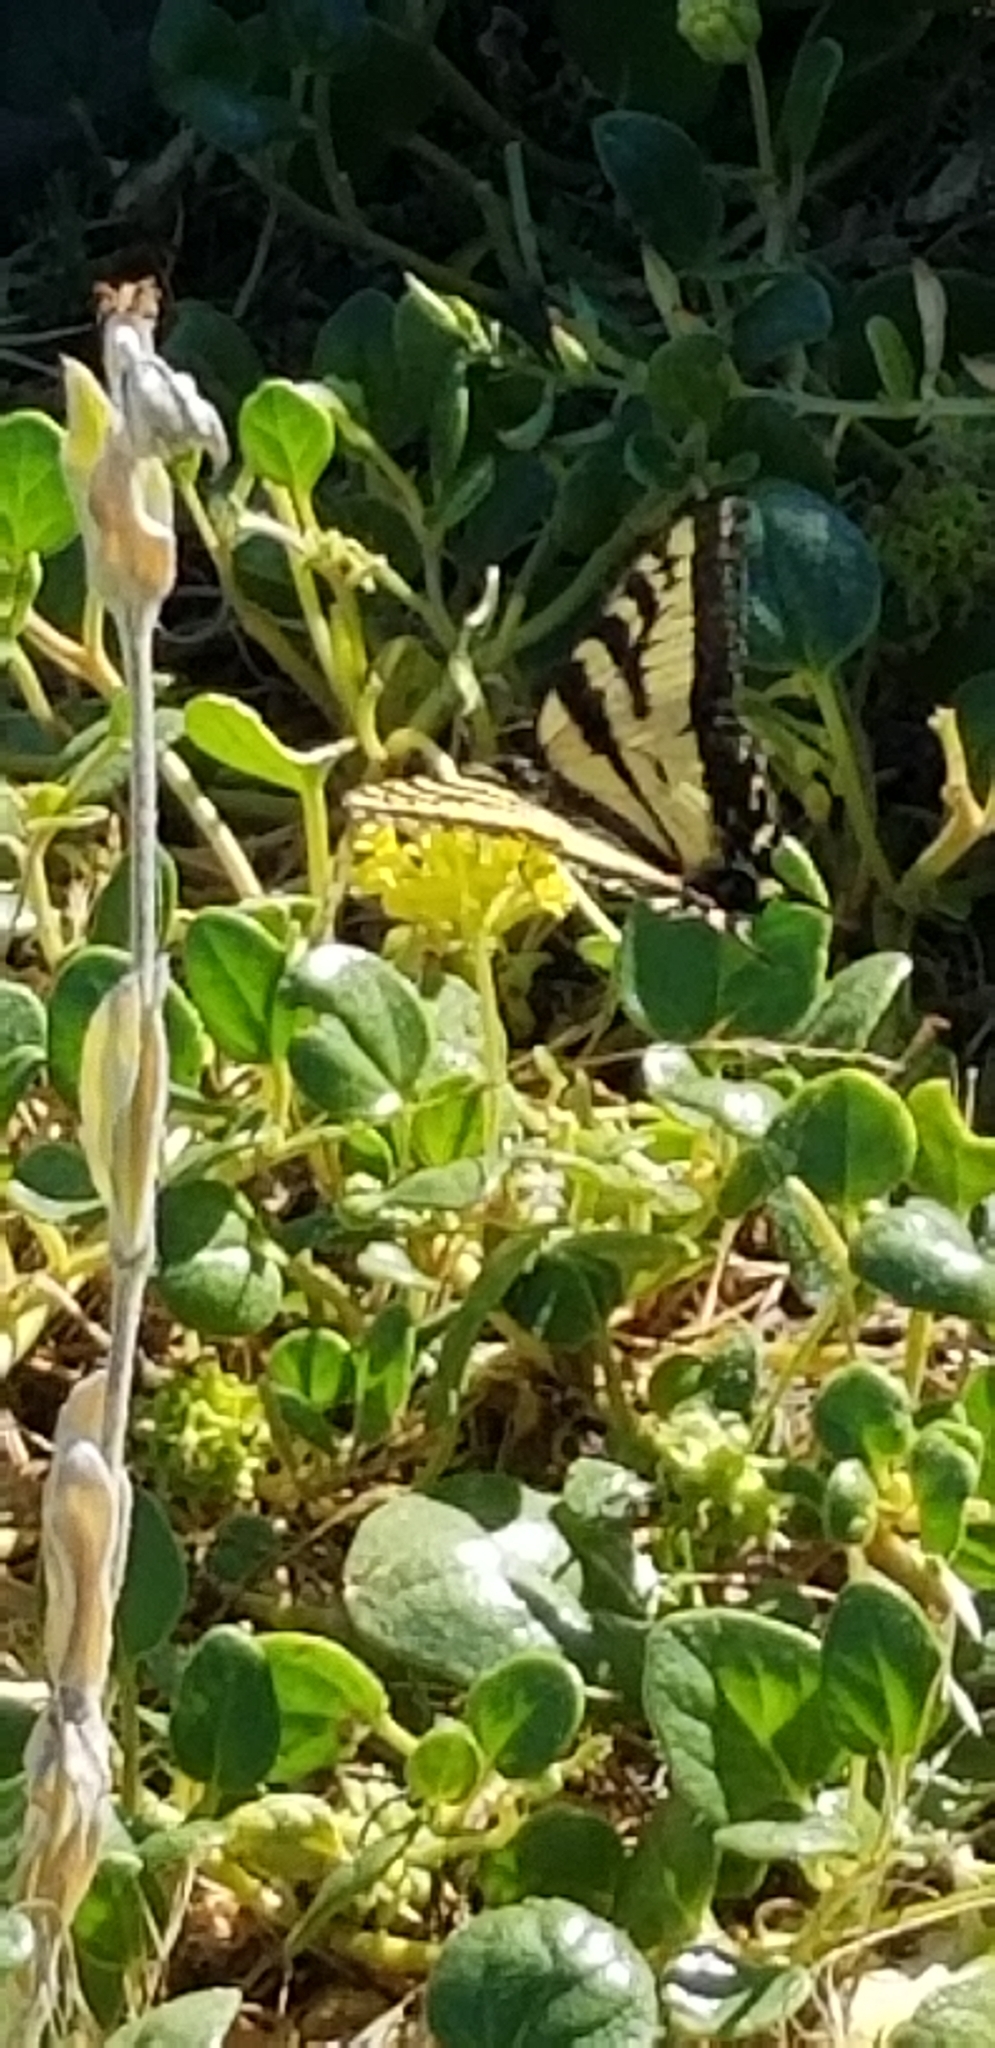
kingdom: Animalia
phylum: Arthropoda
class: Insecta
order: Lepidoptera
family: Papilionidae
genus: Papilio
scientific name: Papilio rutulus
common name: Western tiger swallowtail
